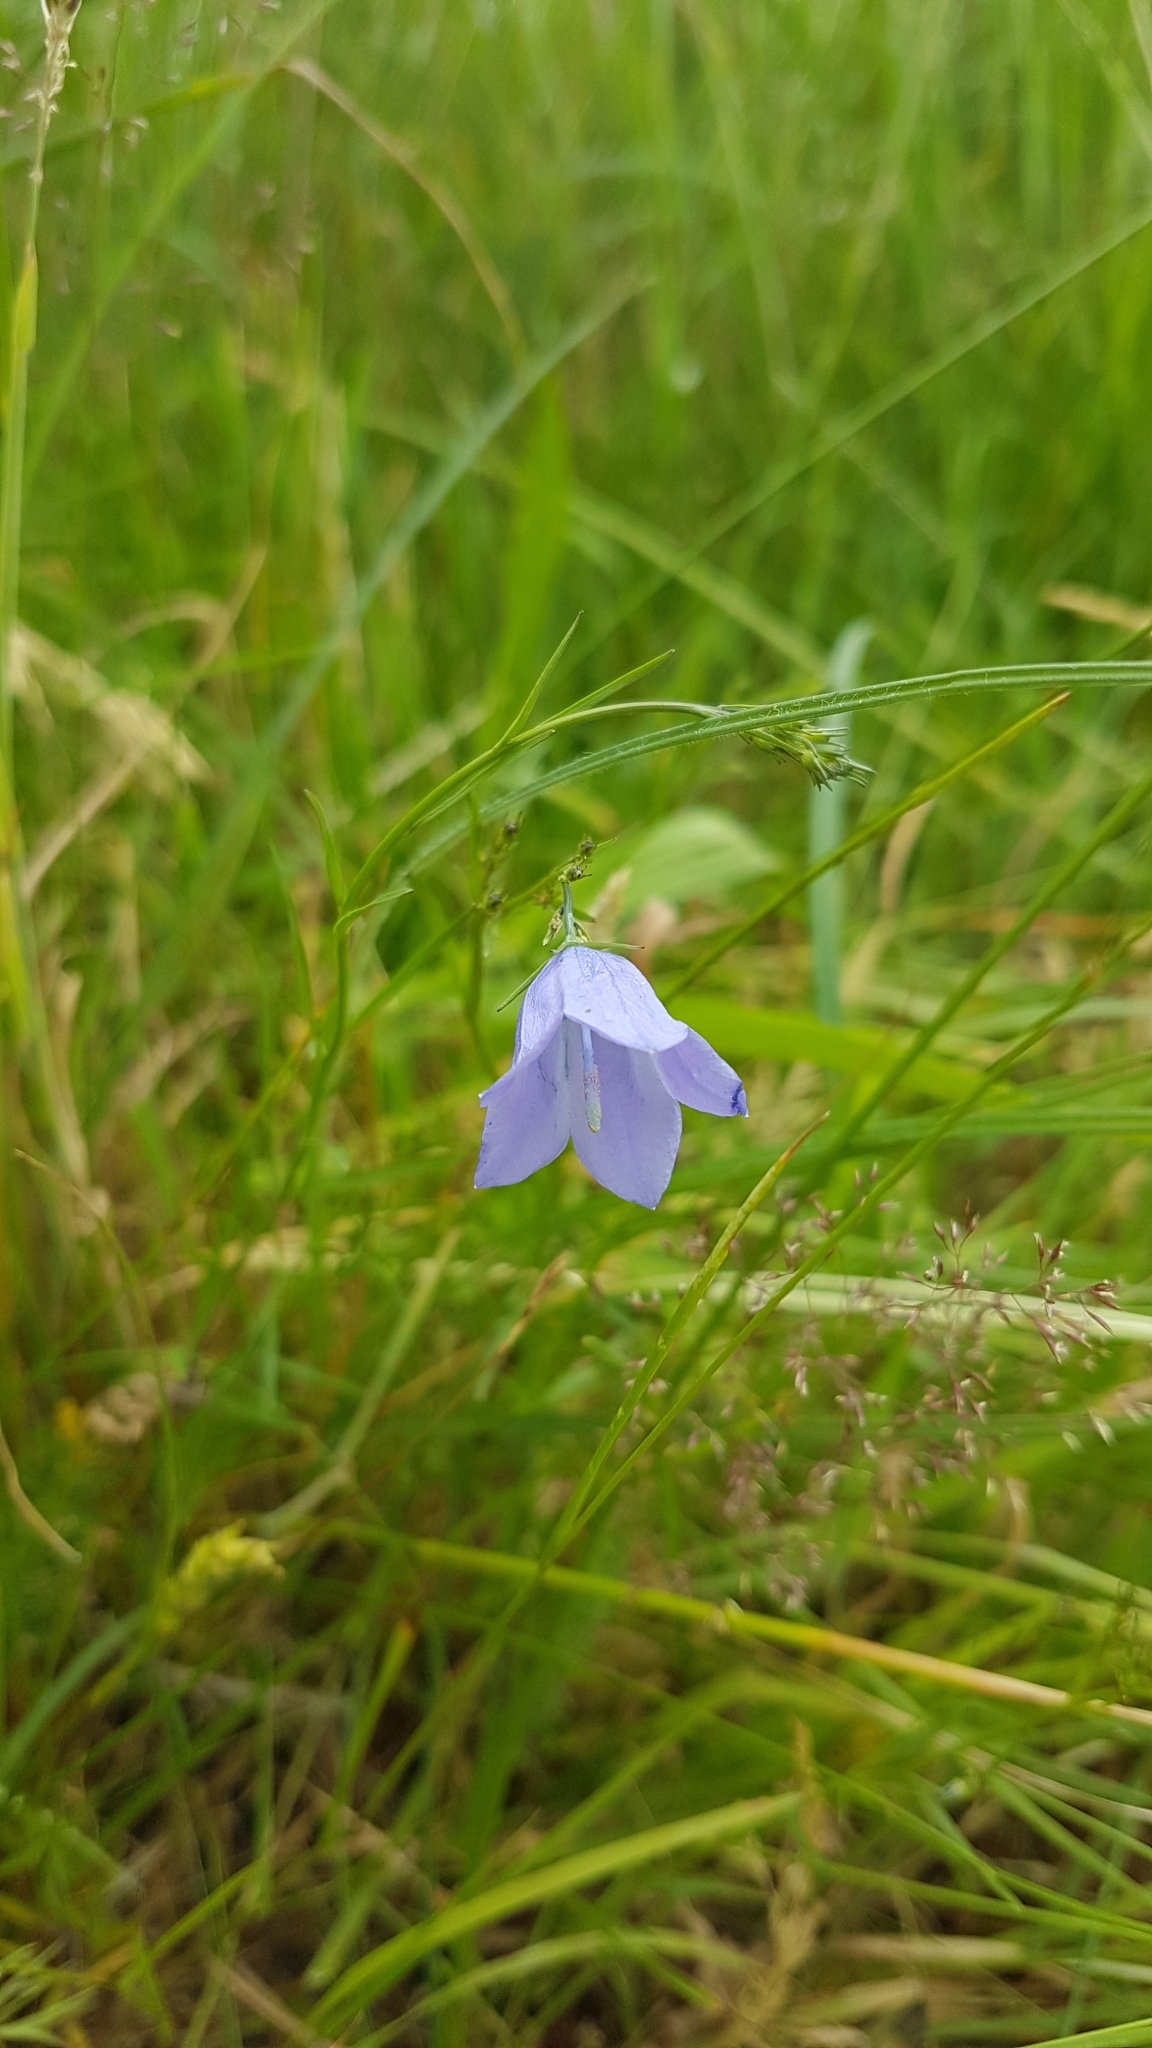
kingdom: Plantae
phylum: Tracheophyta
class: Magnoliopsida
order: Asterales
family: Campanulaceae
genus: Campanula
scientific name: Campanula rotundifolia
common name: Harebell
